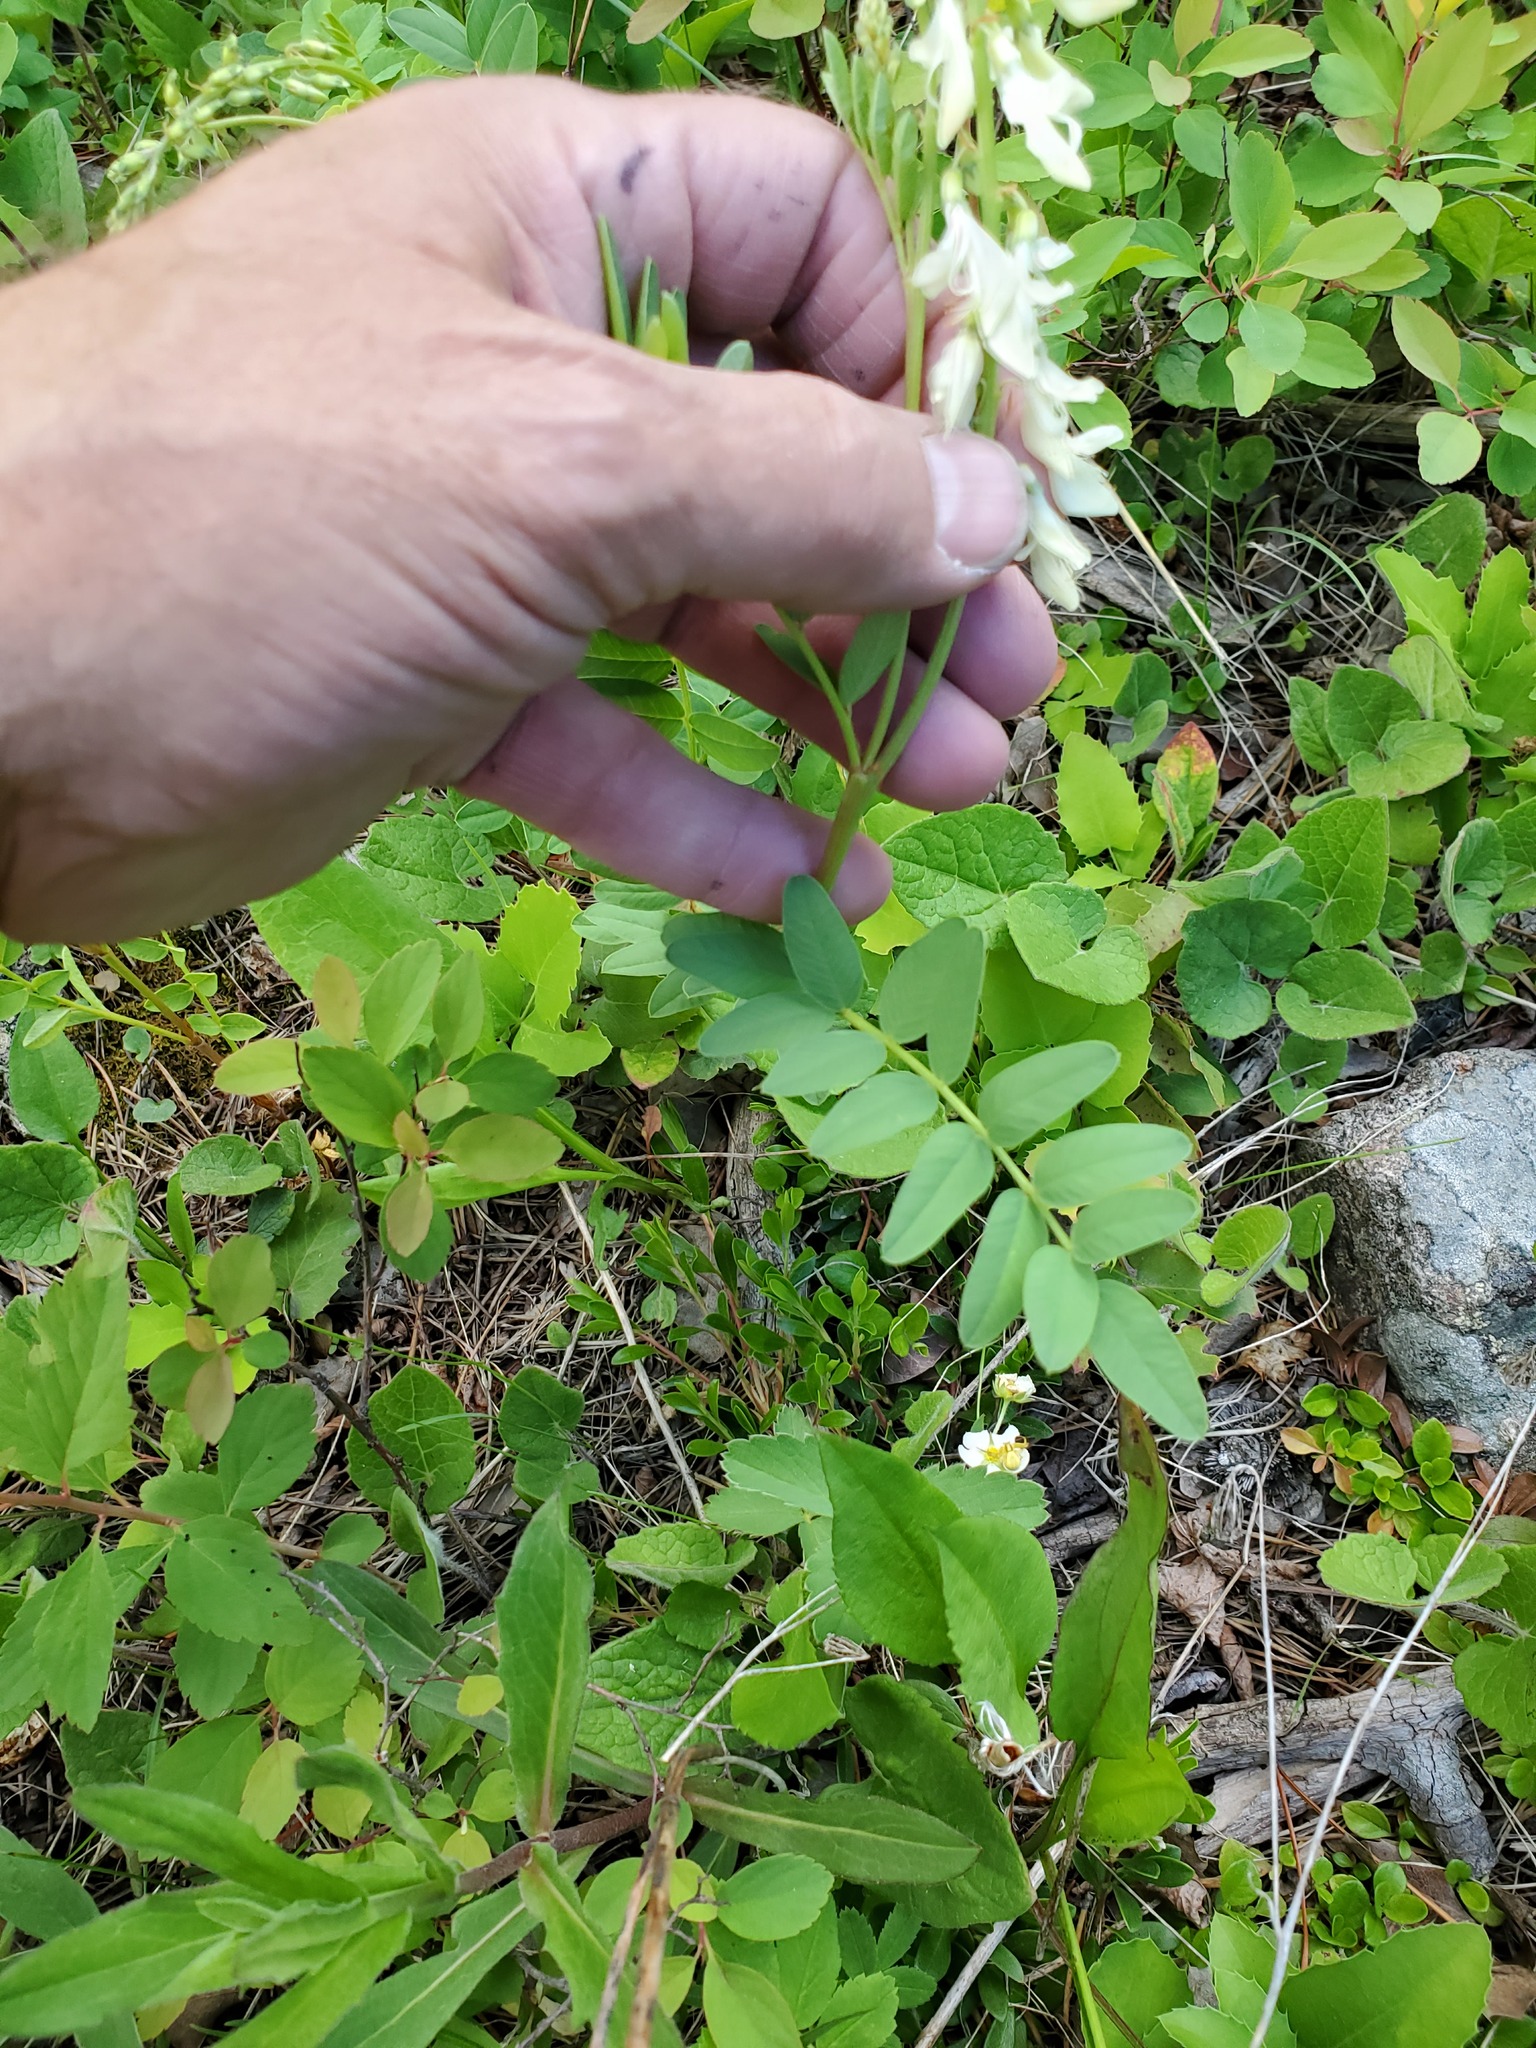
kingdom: Plantae
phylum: Tracheophyta
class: Magnoliopsida
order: Fabales
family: Fabaceae
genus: Hedysarum
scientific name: Hedysarum sulphurescens
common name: Sulphur hedysarum
